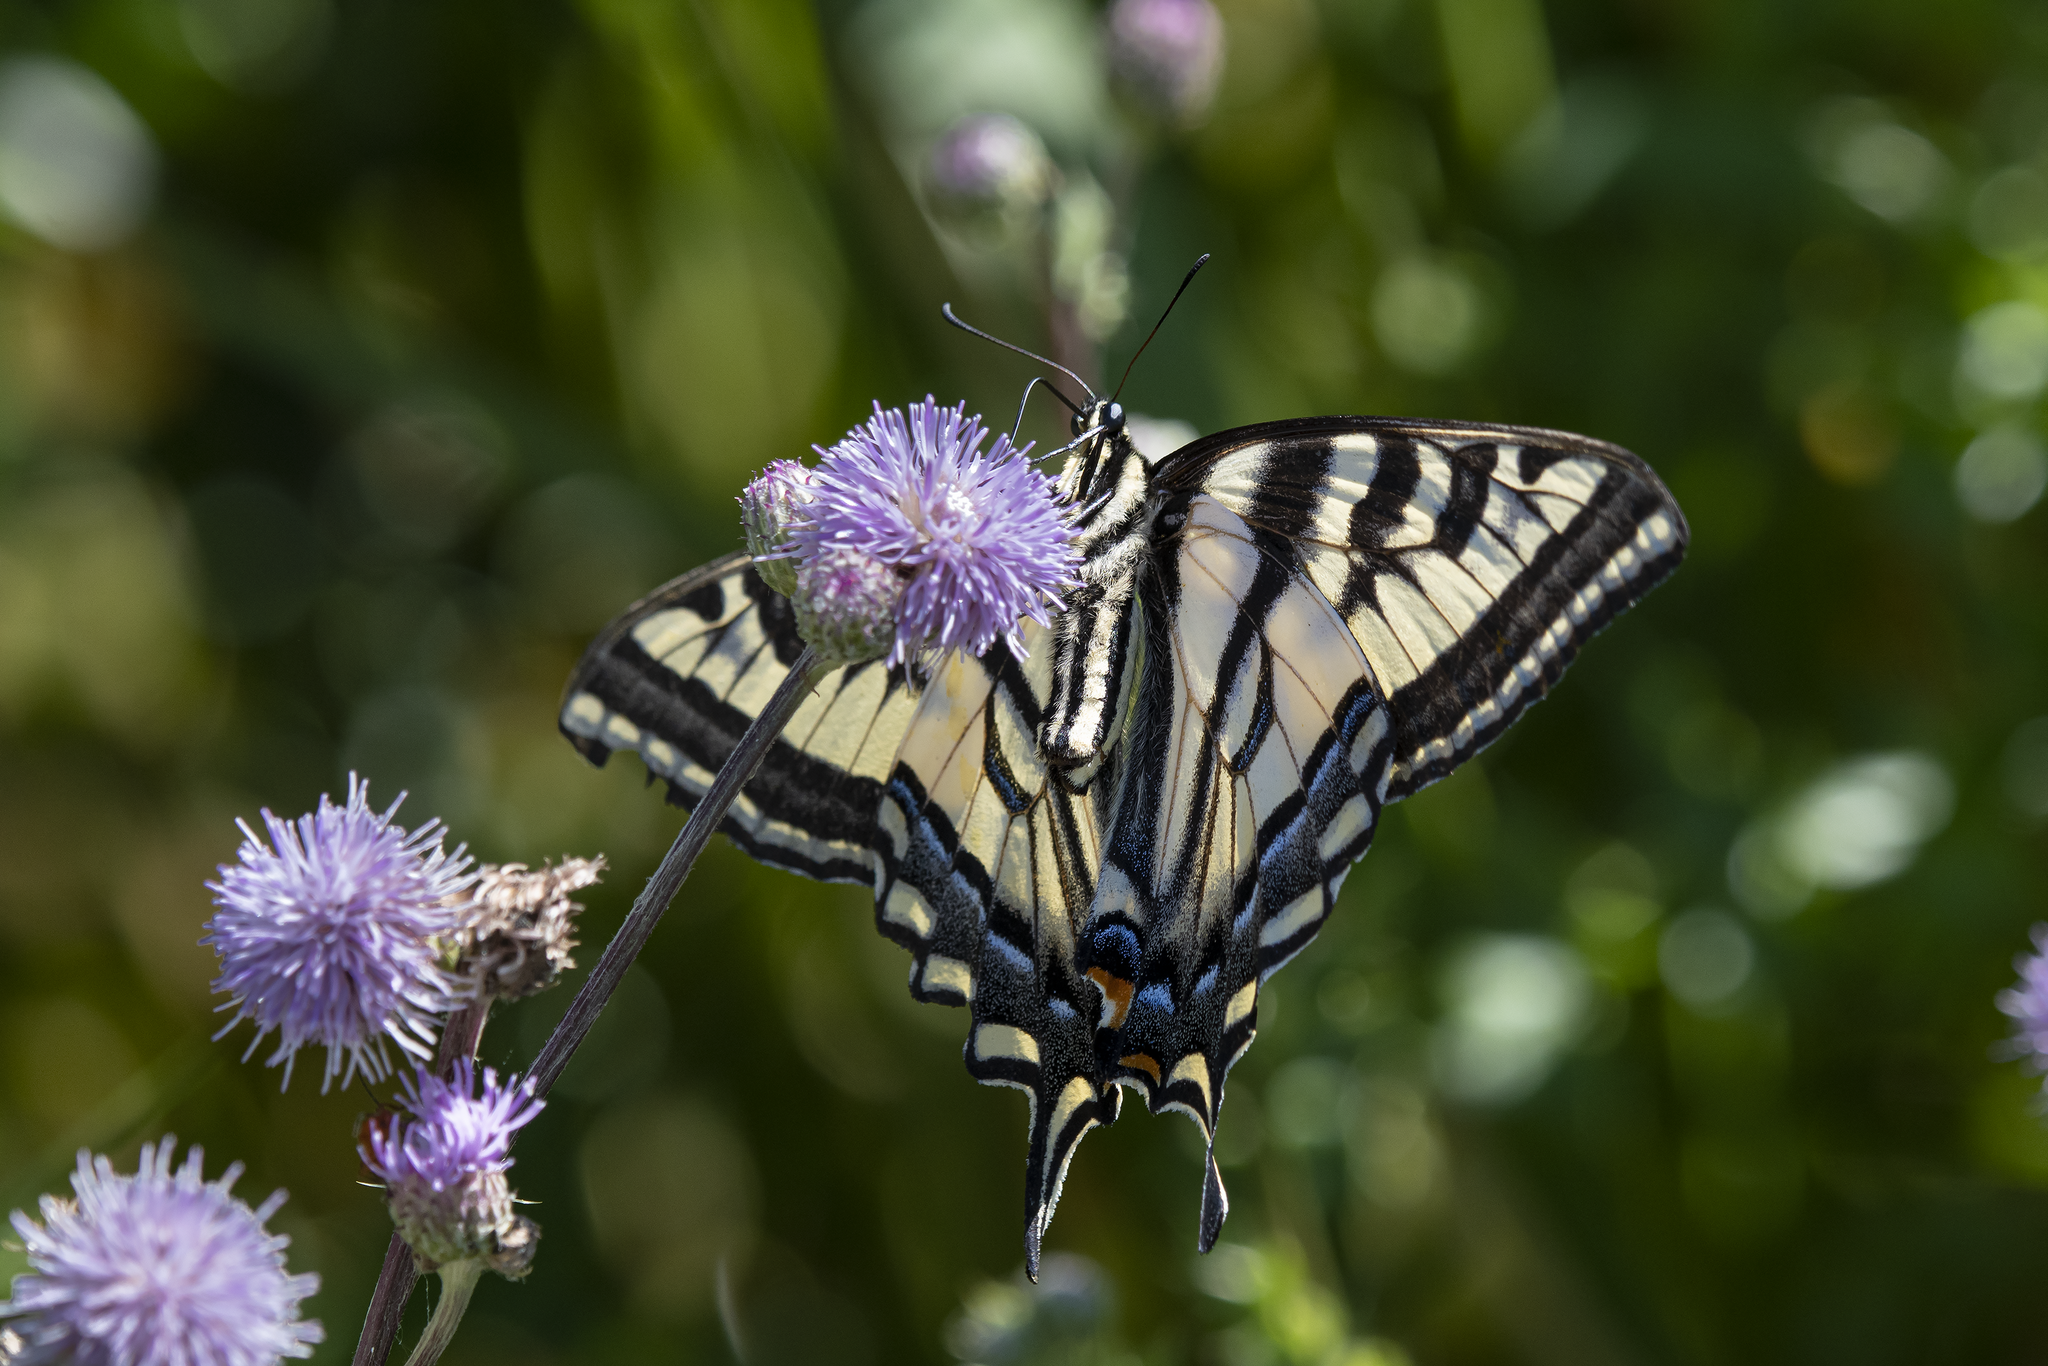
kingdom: Animalia
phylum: Arthropoda
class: Insecta
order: Lepidoptera
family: Papilionidae
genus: Papilio
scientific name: Papilio rutulus
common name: Western tiger swallowtail
